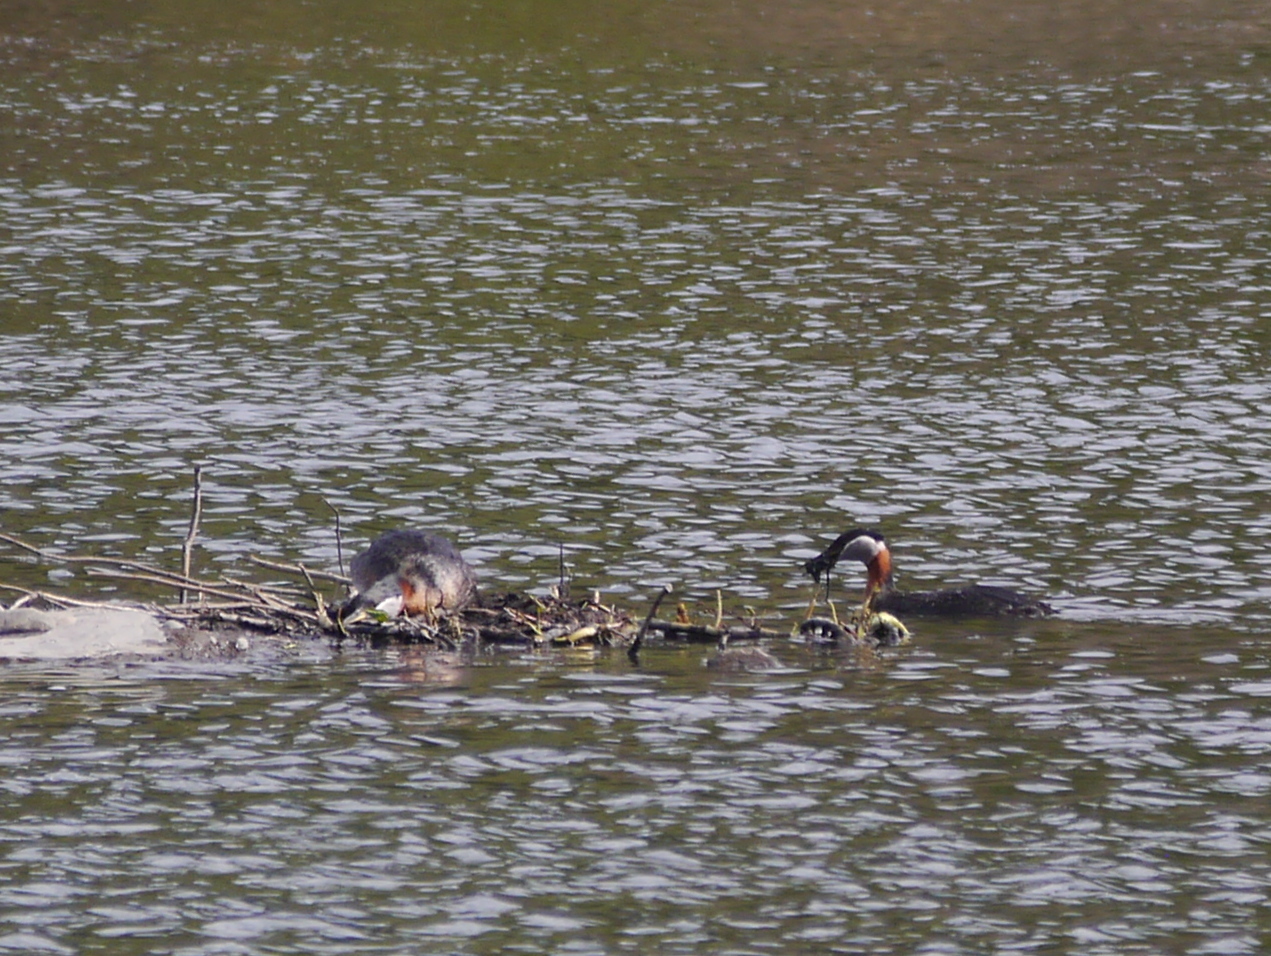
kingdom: Animalia
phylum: Chordata
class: Aves
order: Podicipediformes
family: Podicipedidae
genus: Podiceps
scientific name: Podiceps grisegena
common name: Red-necked grebe
